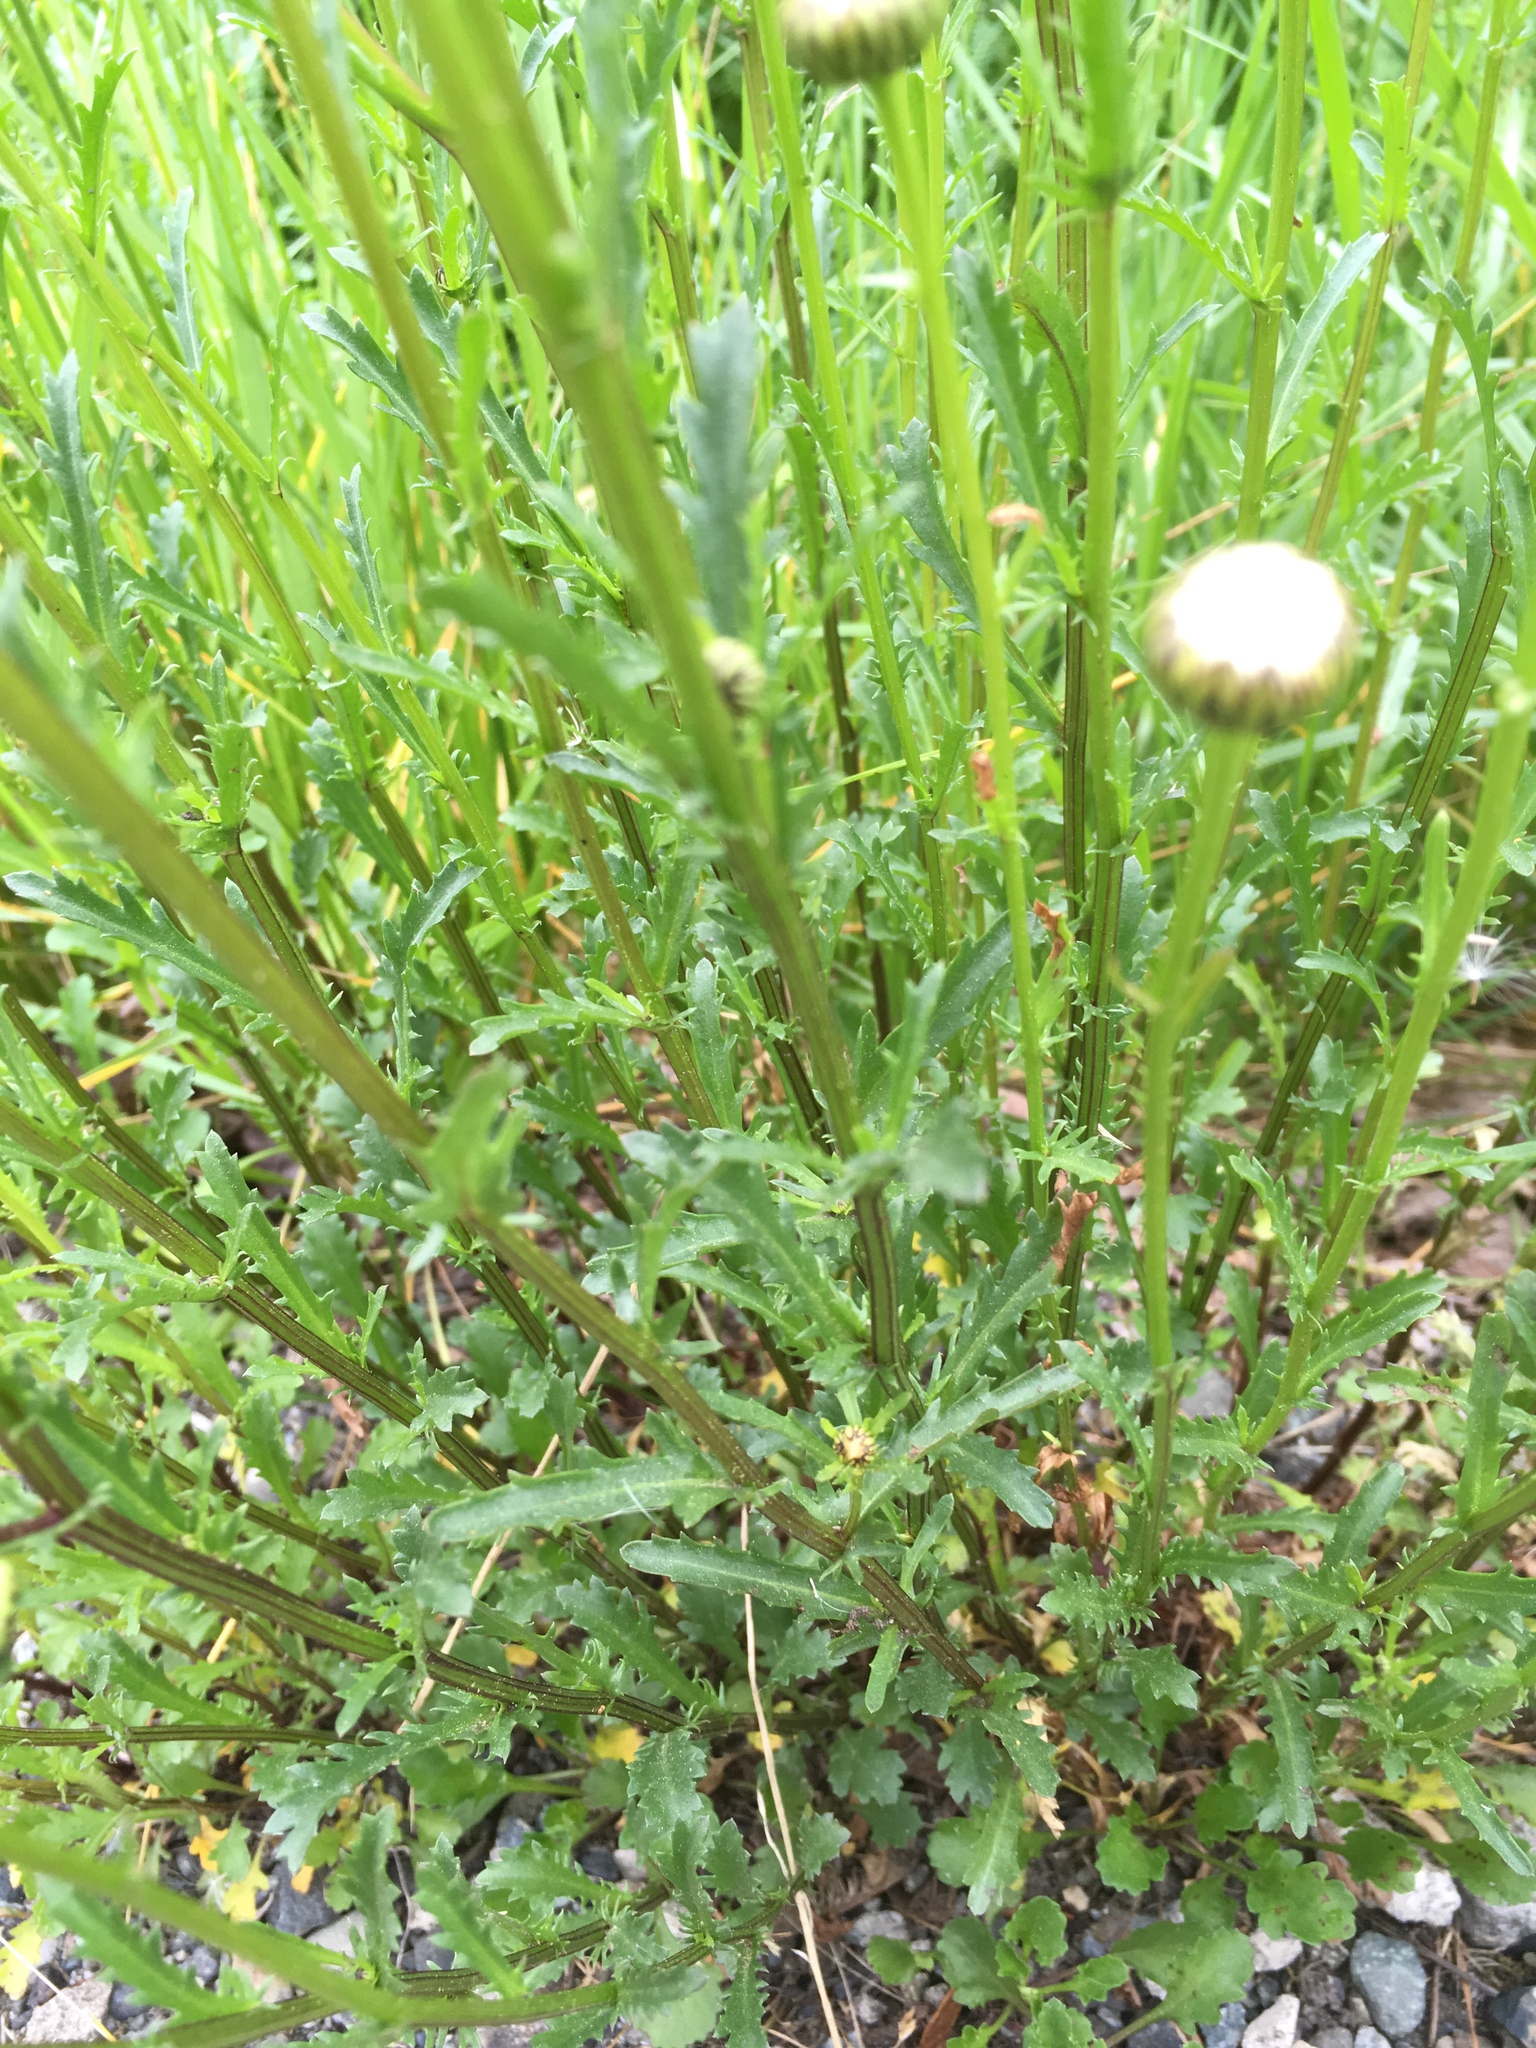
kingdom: Plantae
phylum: Tracheophyta
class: Magnoliopsida
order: Asterales
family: Asteraceae
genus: Leucanthemum
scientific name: Leucanthemum vulgare
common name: Oxeye daisy
